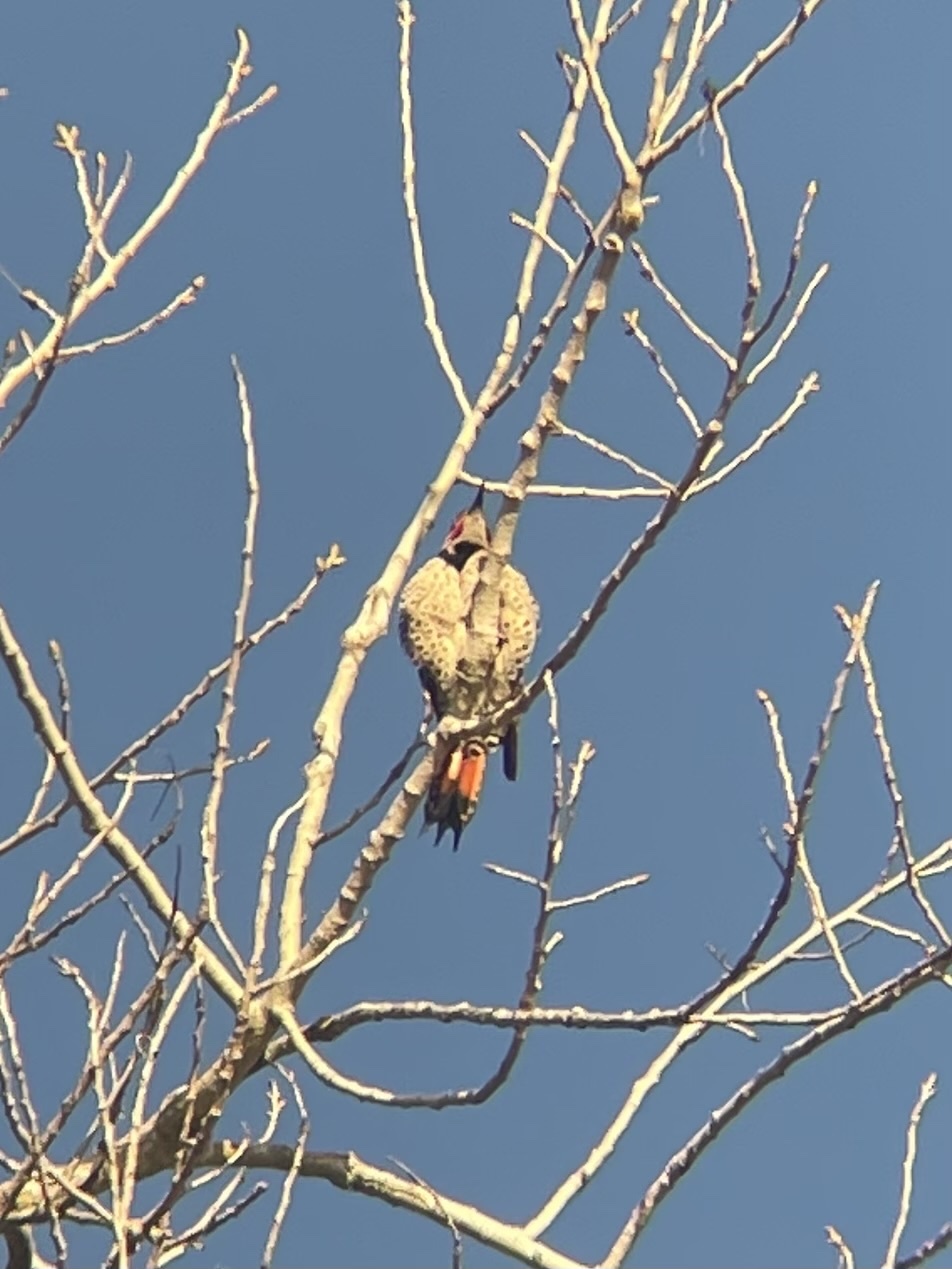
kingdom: Animalia
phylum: Chordata
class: Aves
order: Piciformes
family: Picidae
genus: Colaptes
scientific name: Colaptes auratus
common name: Northern flicker
